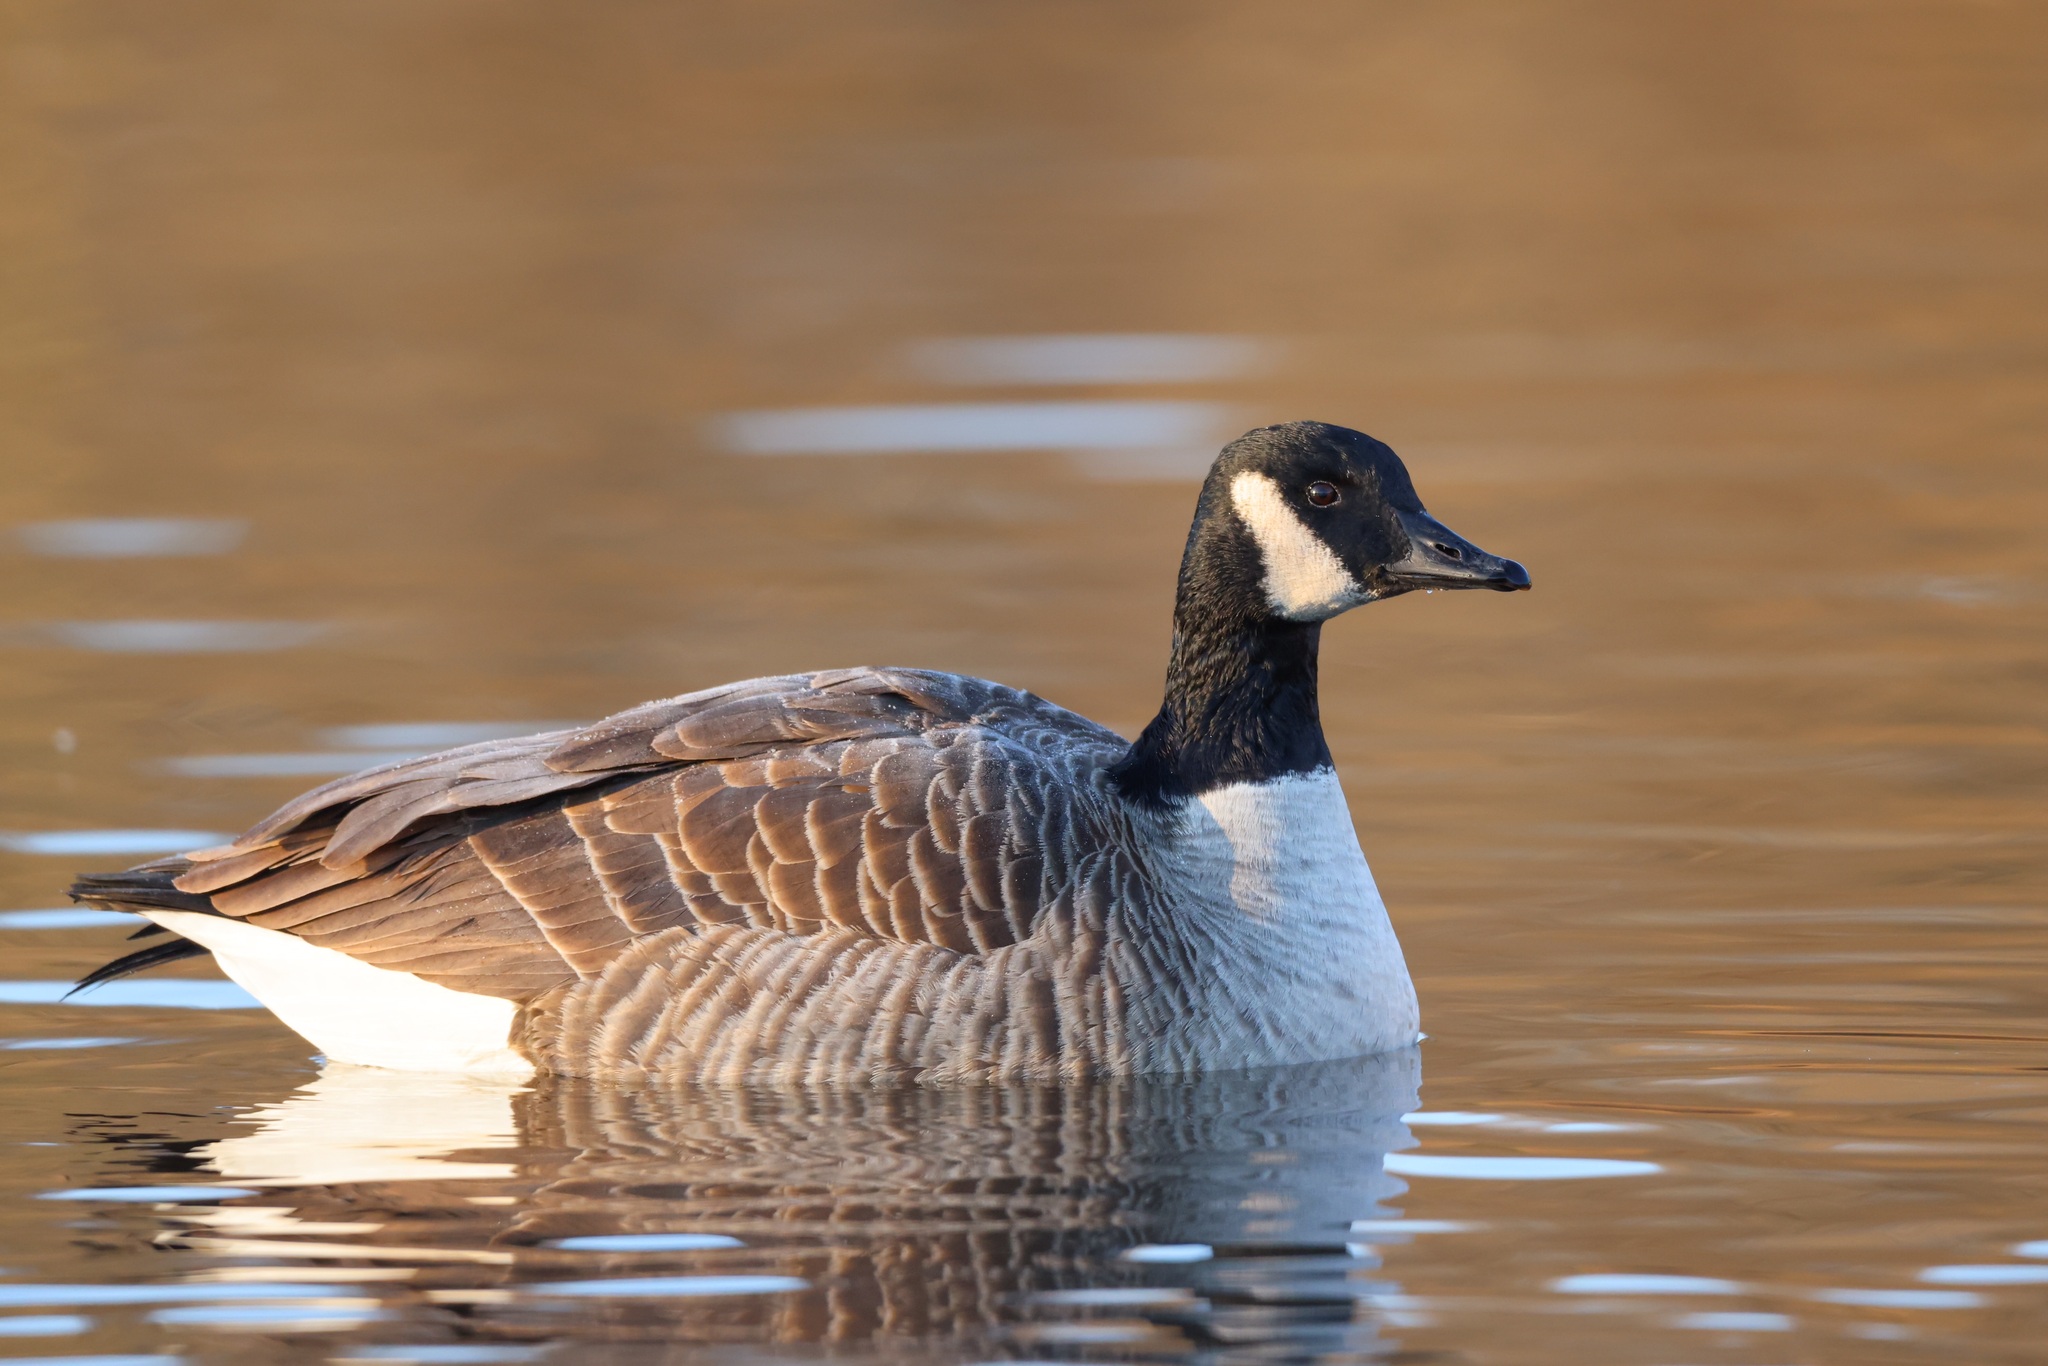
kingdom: Animalia
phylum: Chordata
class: Aves
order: Anseriformes
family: Anatidae
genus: Branta
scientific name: Branta canadensis
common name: Canada goose
